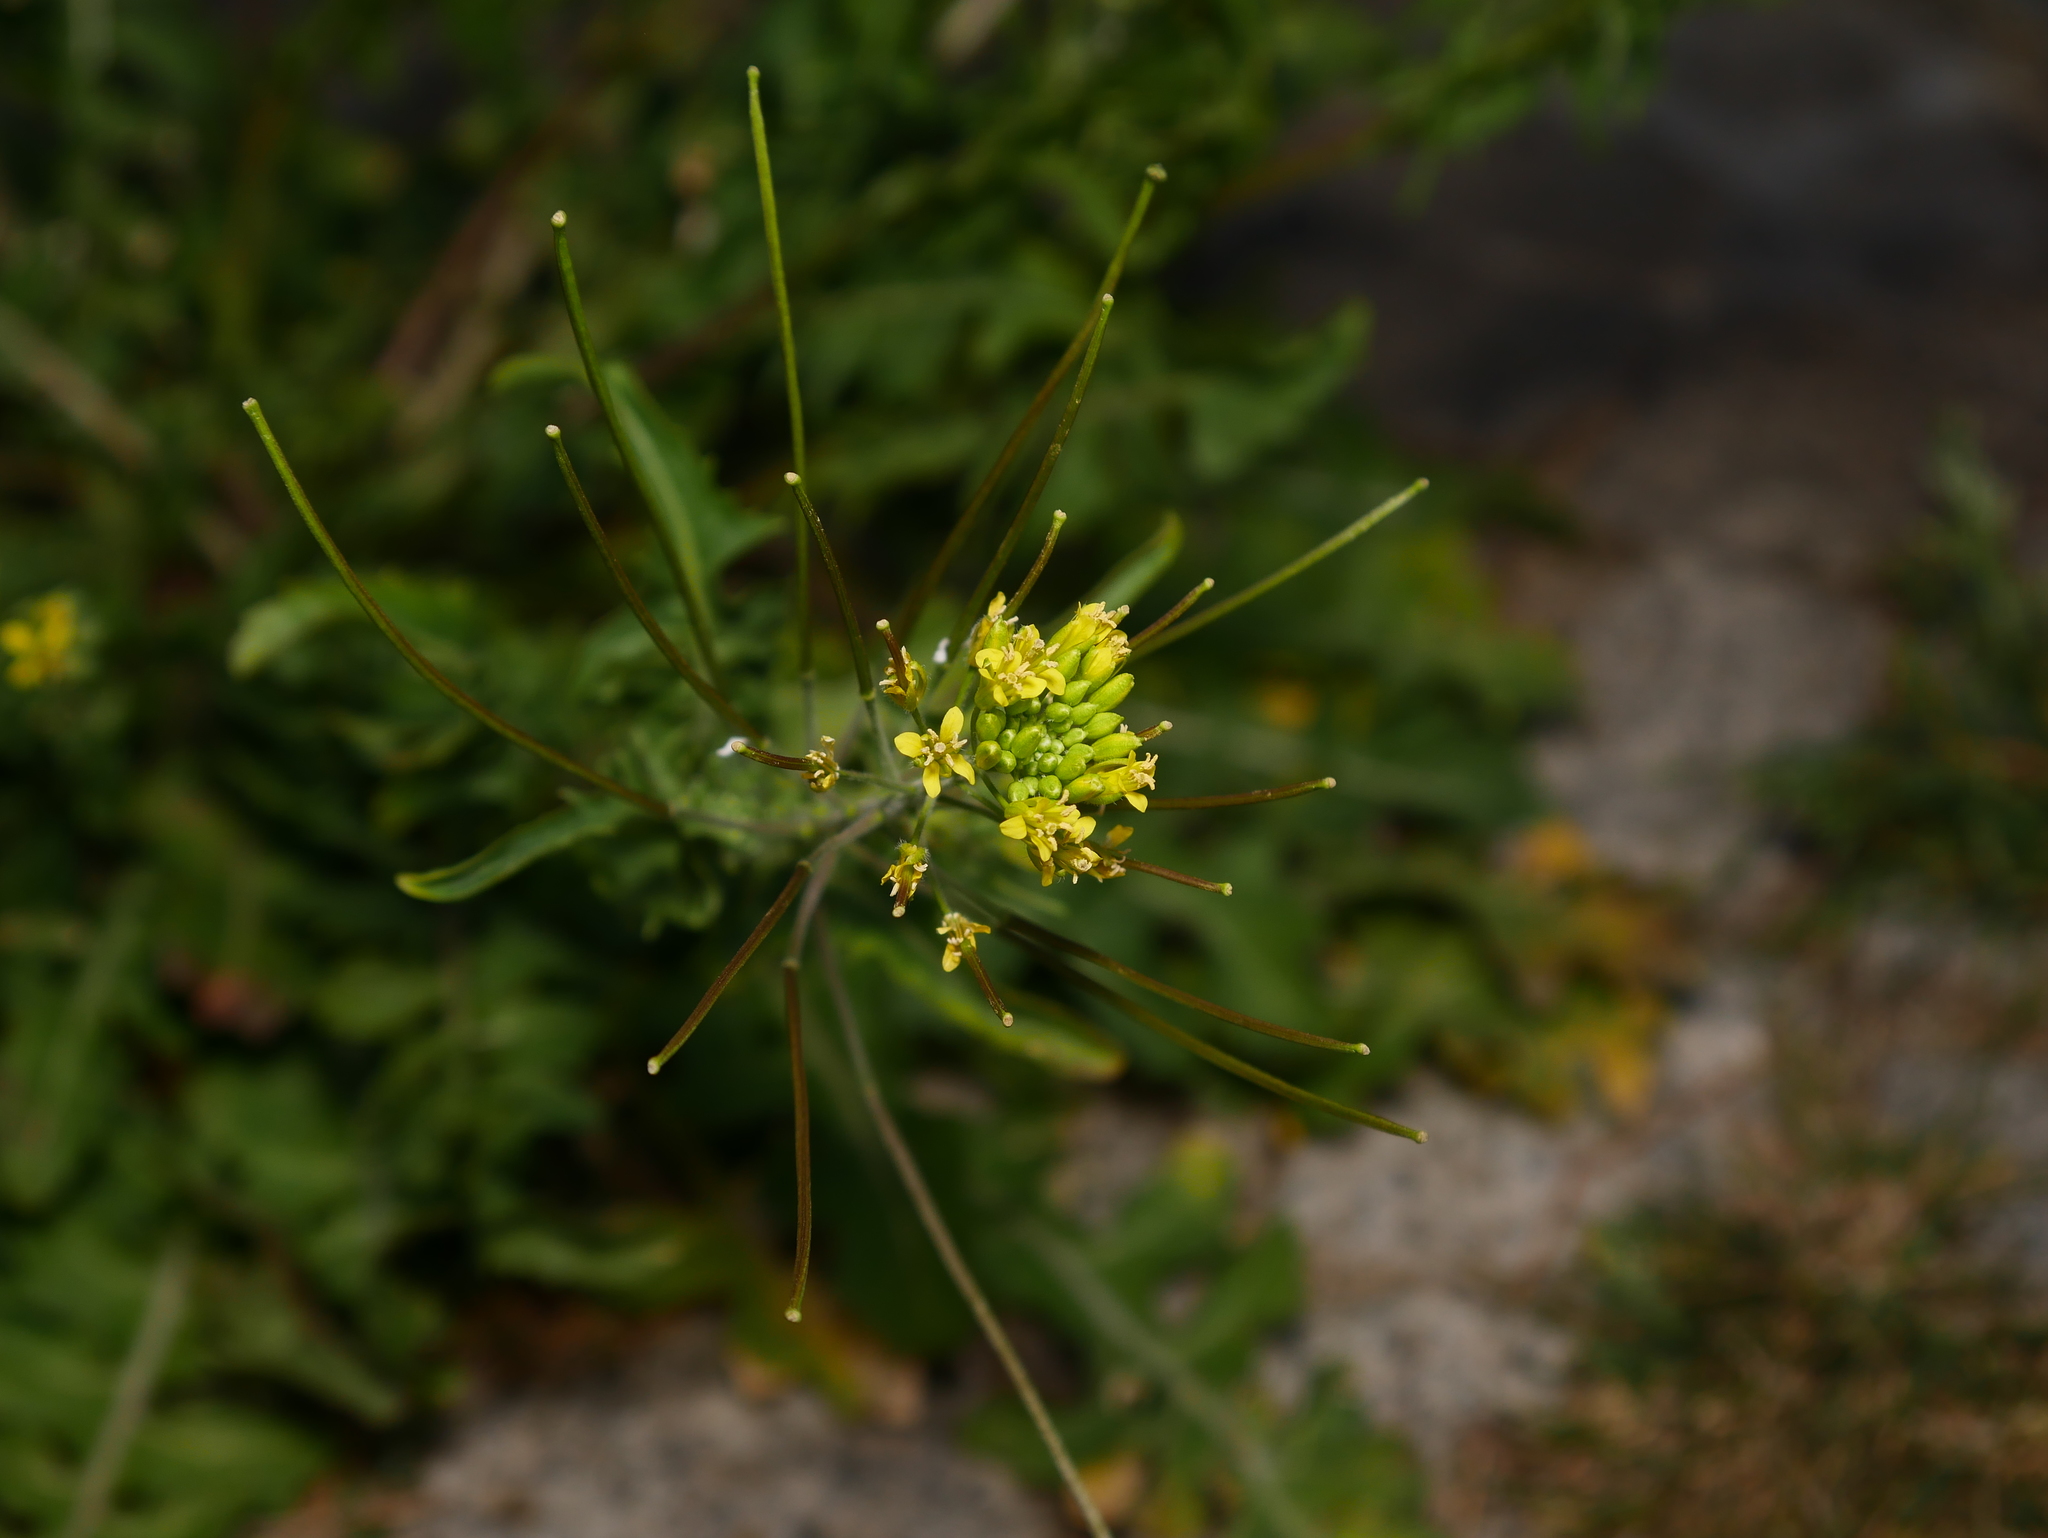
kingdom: Plantae
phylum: Tracheophyta
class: Magnoliopsida
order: Brassicales
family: Brassicaceae
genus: Sisymbrium
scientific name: Sisymbrium irio
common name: London rocket
